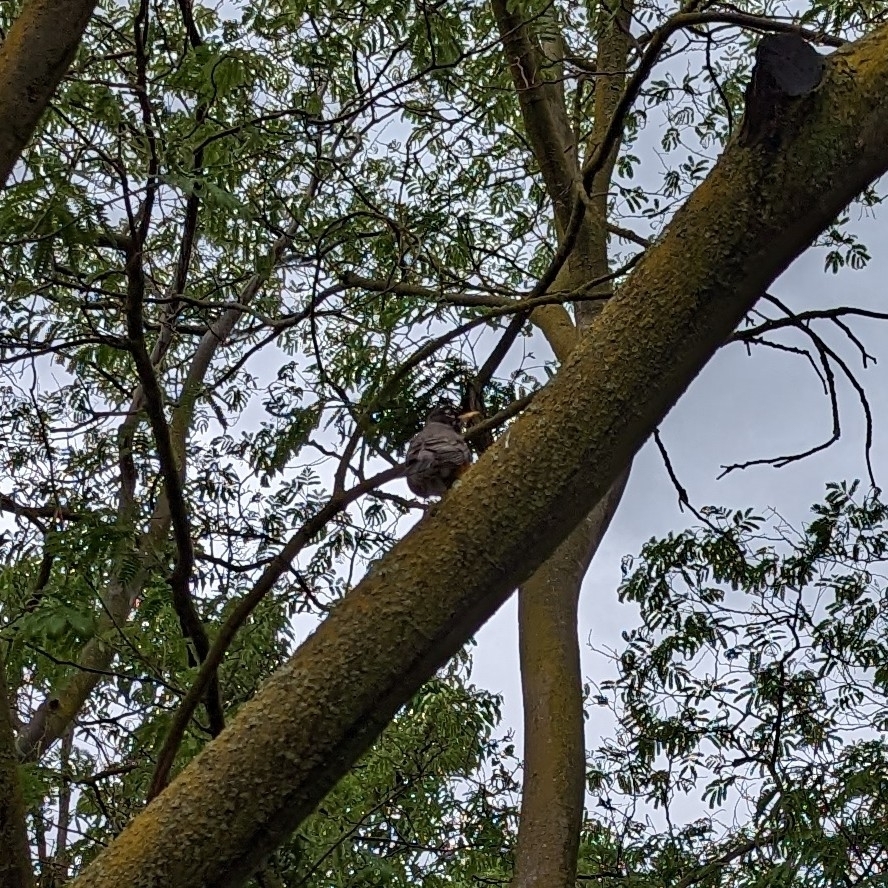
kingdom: Animalia
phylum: Chordata
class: Aves
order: Passeriformes
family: Turdidae
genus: Turdus
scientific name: Turdus migratorius
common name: American robin
